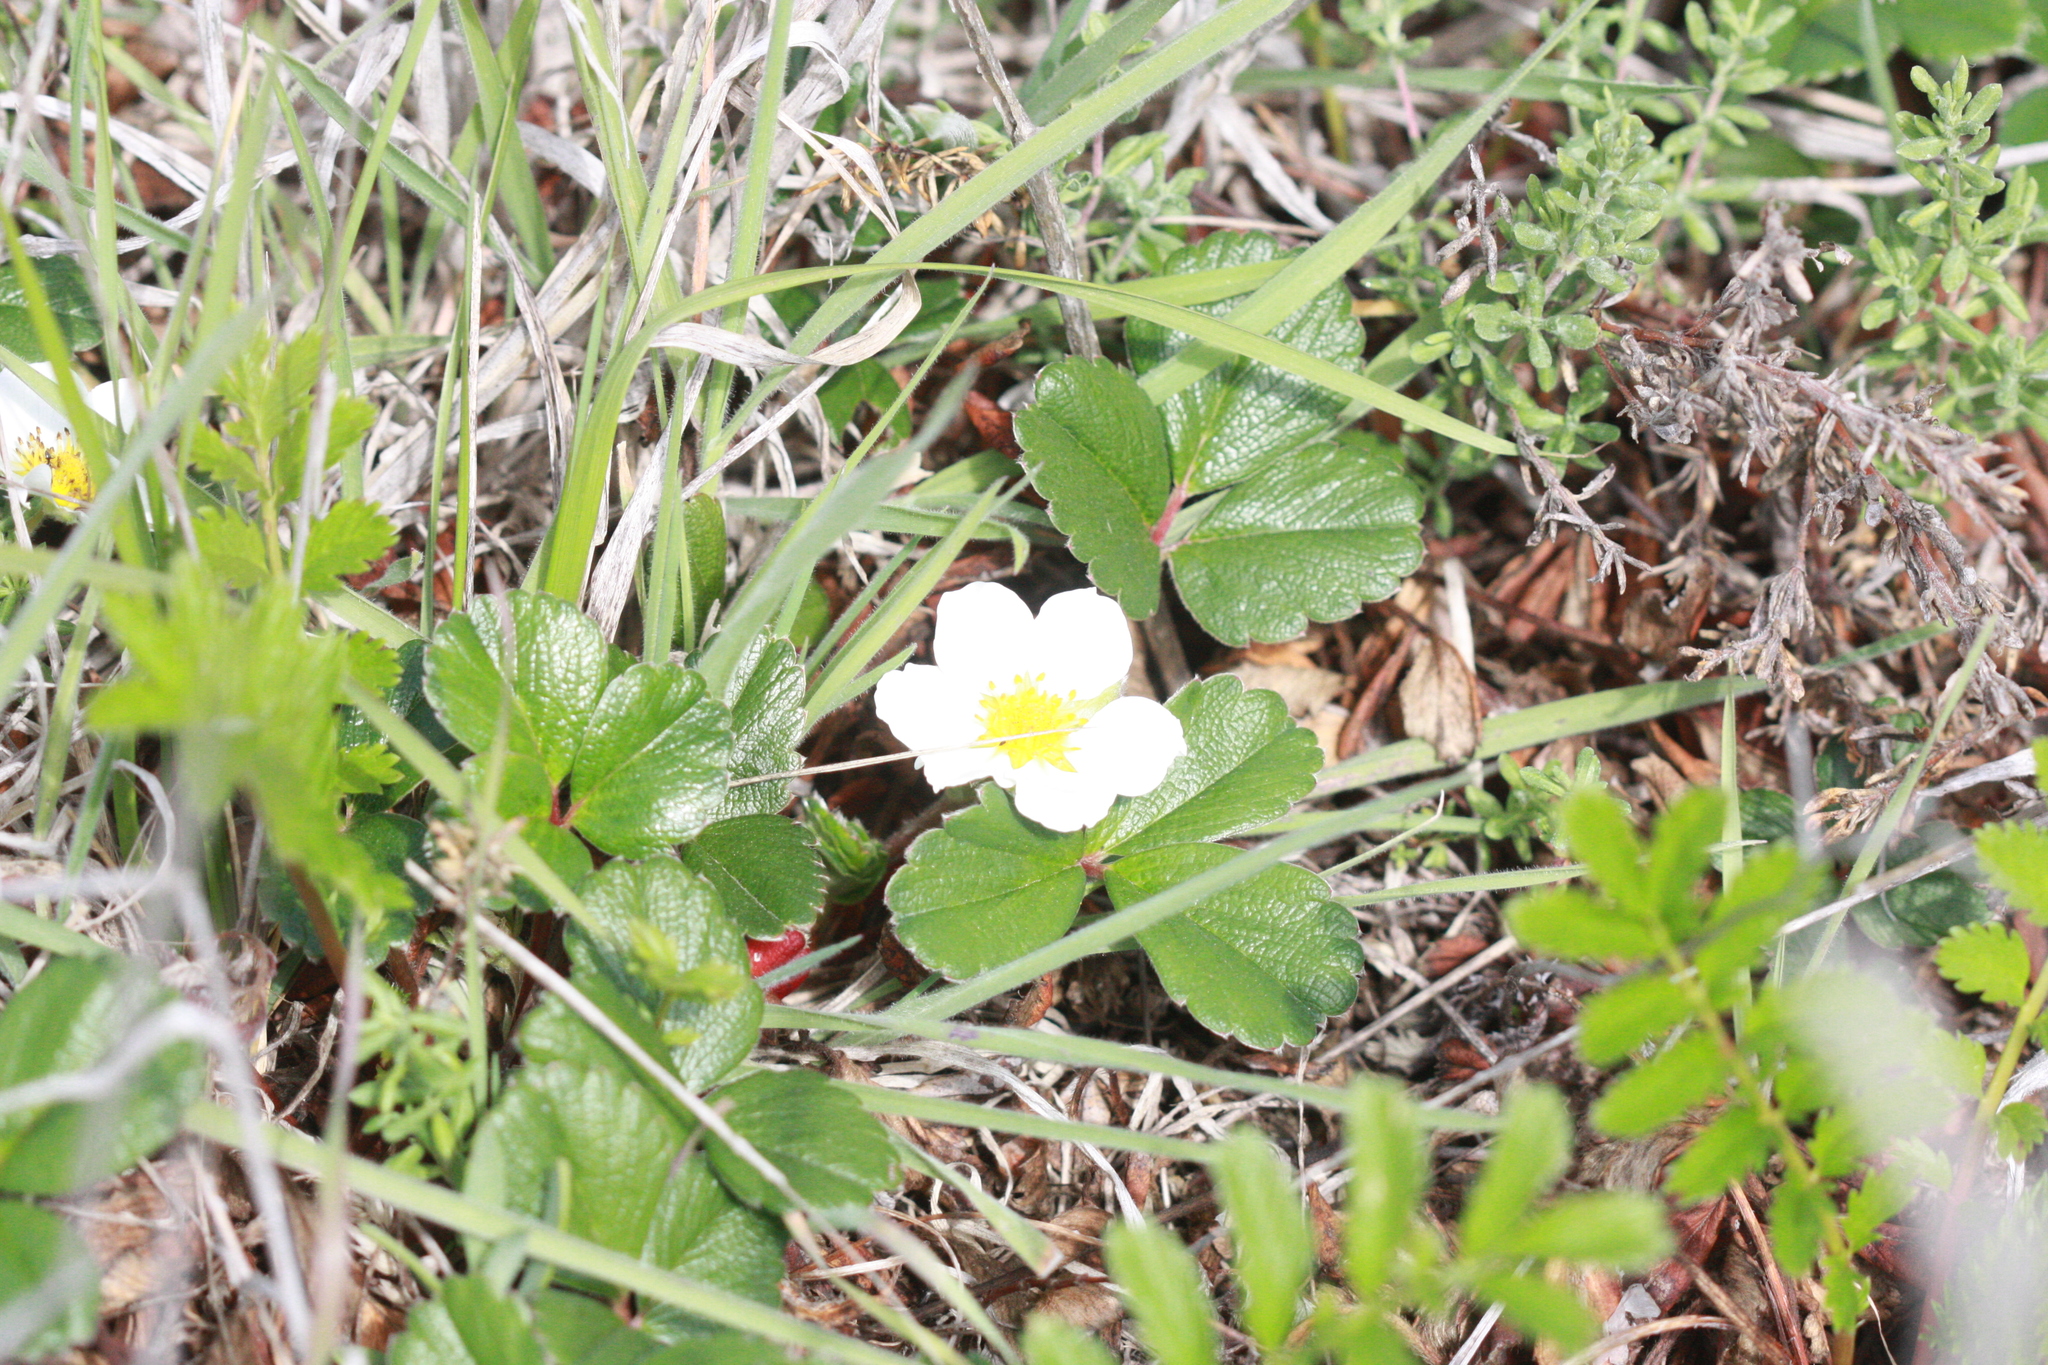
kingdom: Plantae
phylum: Tracheophyta
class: Magnoliopsida
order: Rosales
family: Rosaceae
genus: Fragaria
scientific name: Fragaria chiloensis
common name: Beach strawberry
